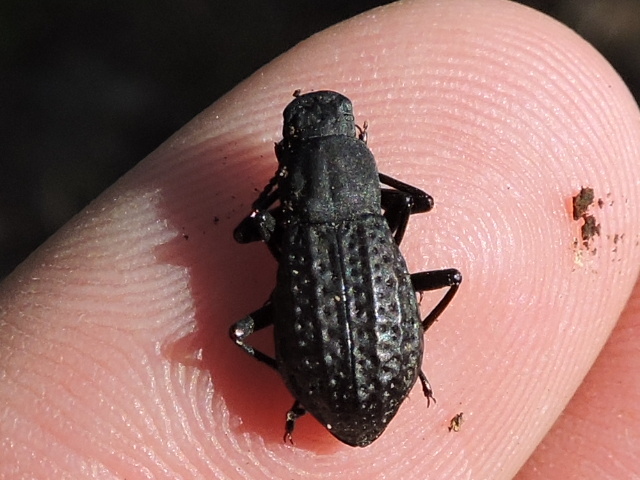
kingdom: Animalia
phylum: Arthropoda
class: Insecta
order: Coleoptera
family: Tenebrionidae
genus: Polypleurus
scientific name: Polypleurus perforatus
